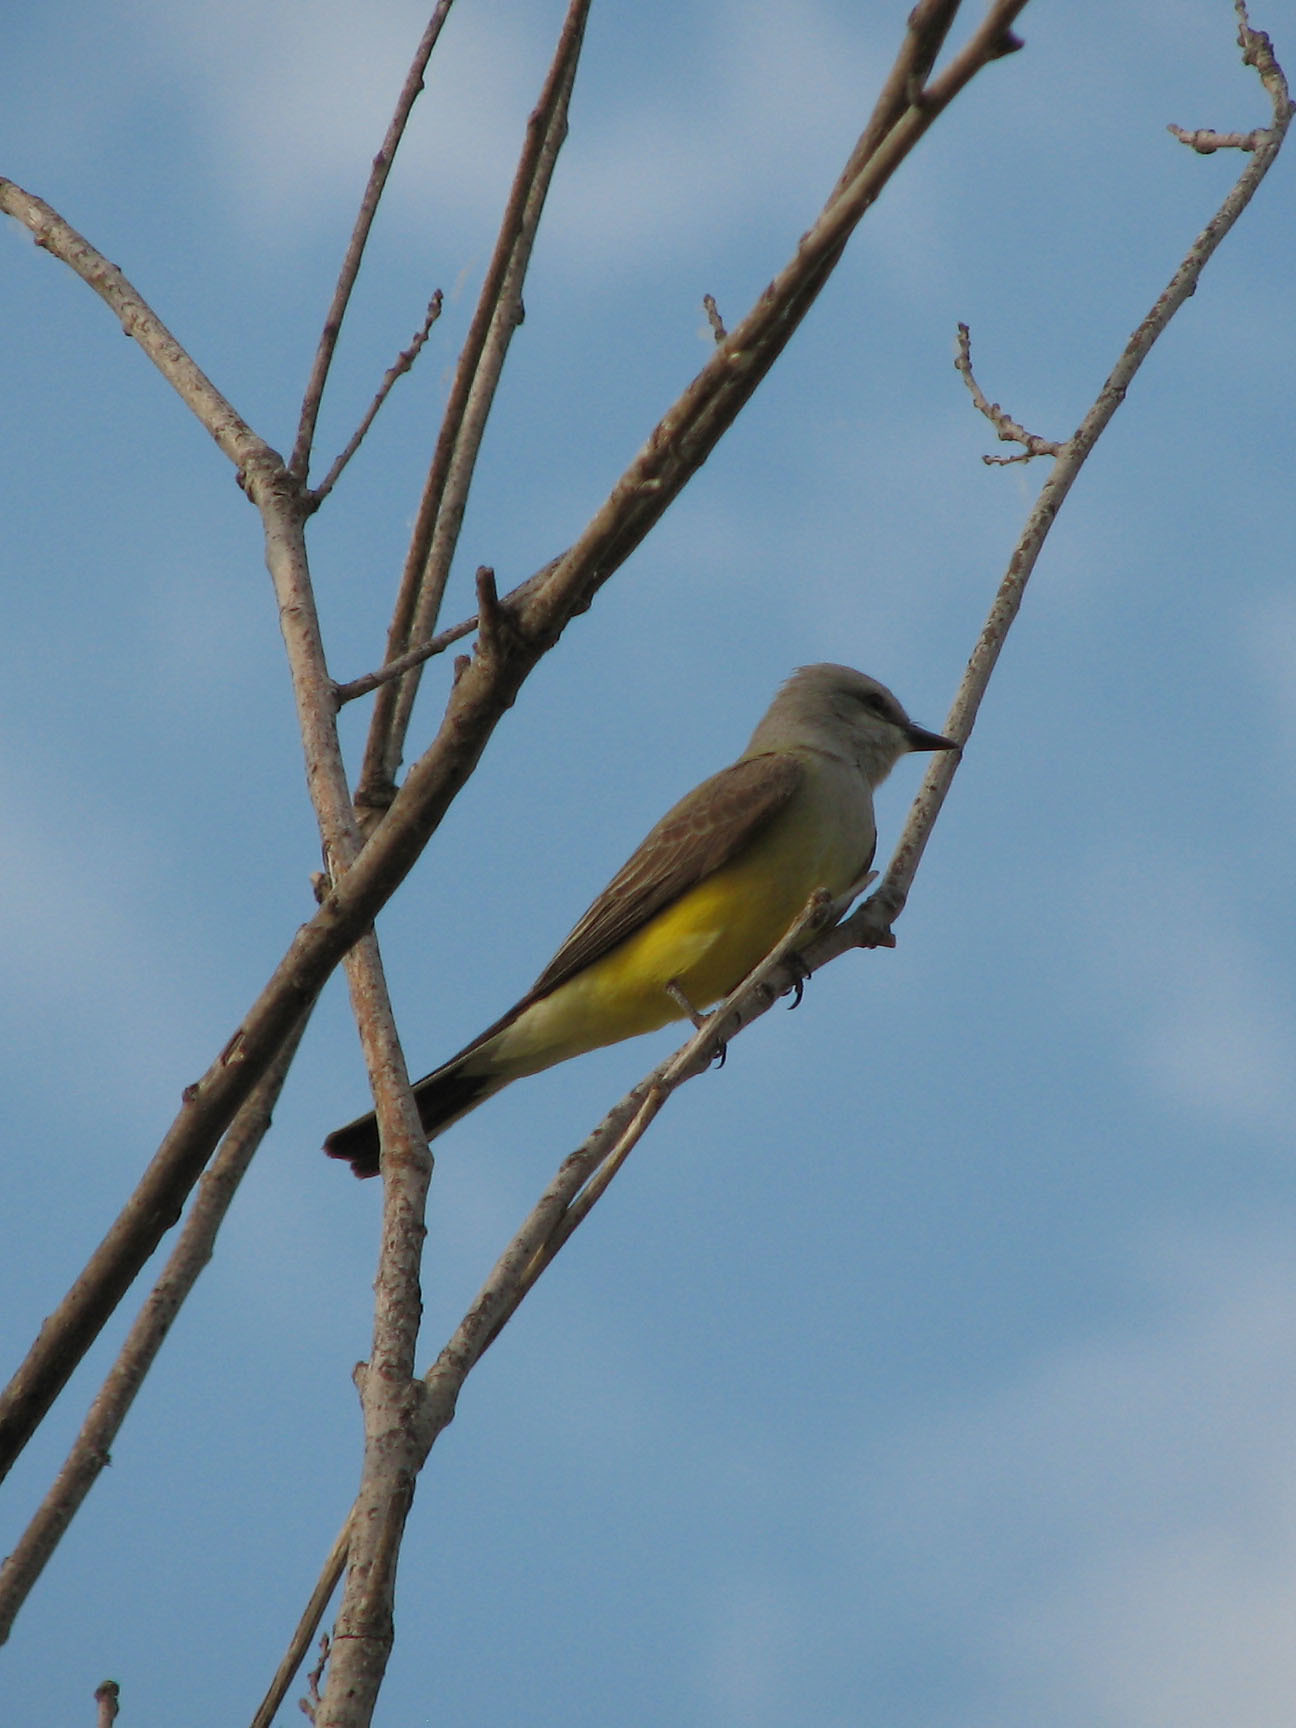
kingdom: Animalia
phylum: Chordata
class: Aves
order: Passeriformes
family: Tyrannidae
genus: Tyrannus
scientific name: Tyrannus verticalis
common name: Western kingbird
